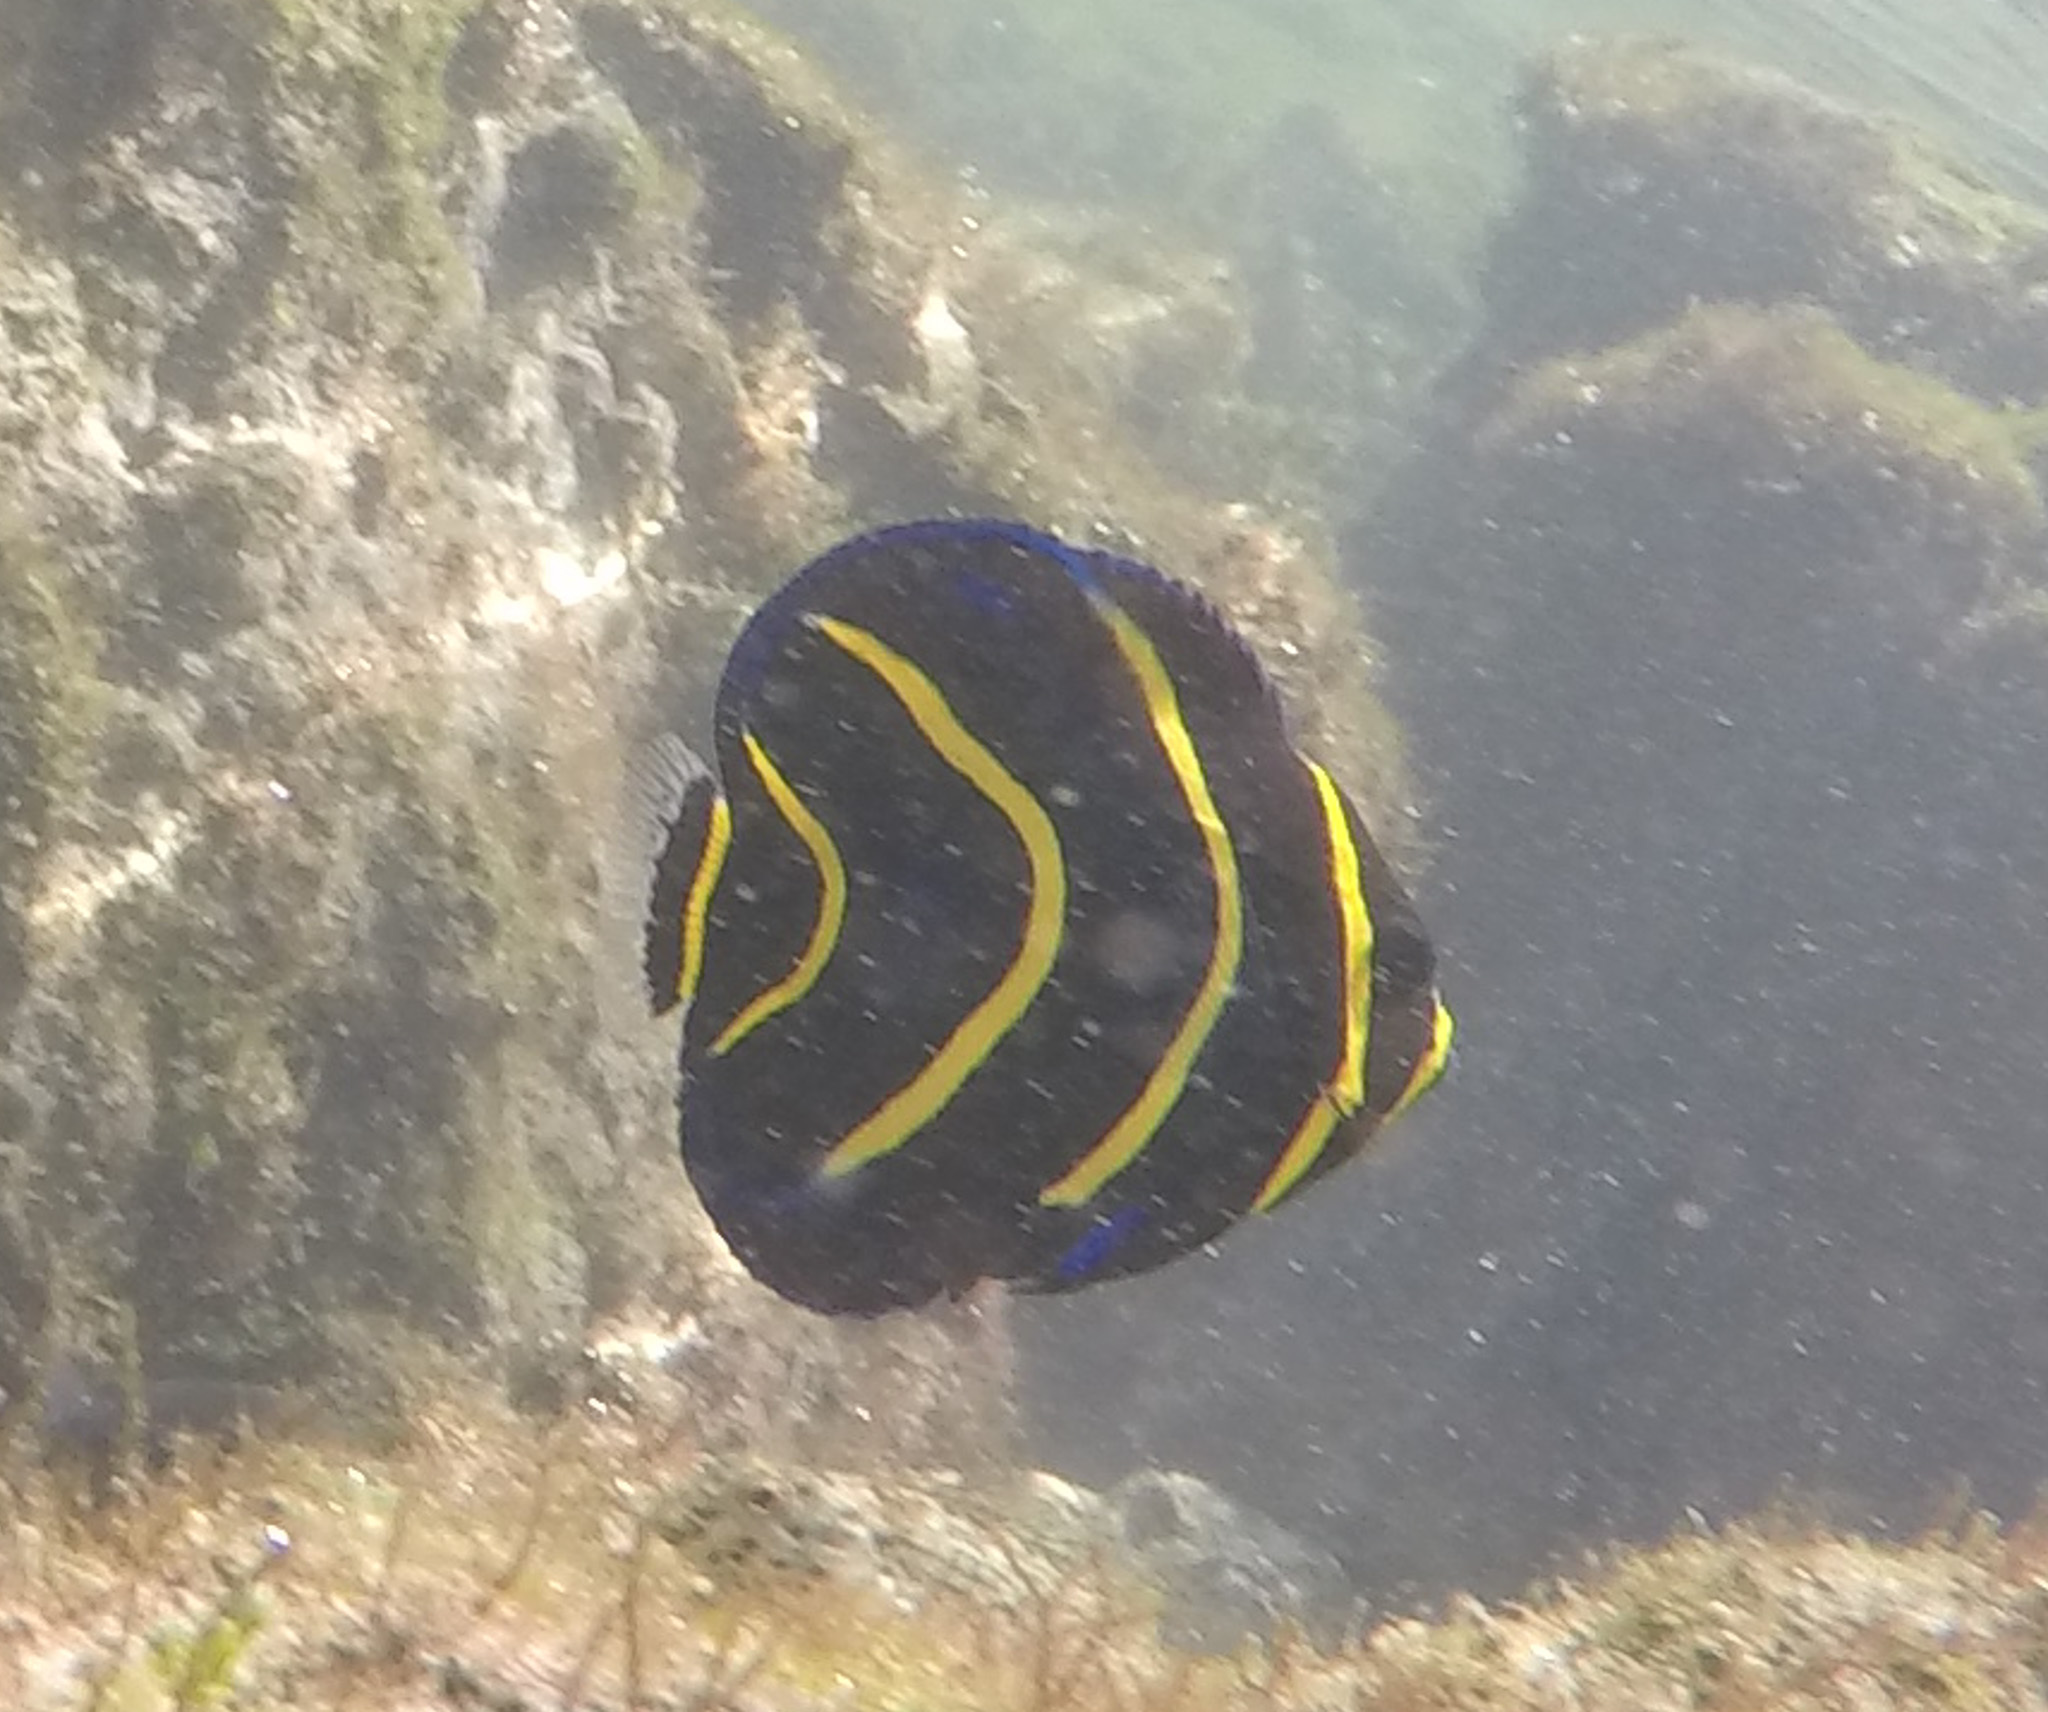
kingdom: Animalia
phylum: Chordata
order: Perciformes
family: Pomacanthidae
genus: Pomacanthus
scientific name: Pomacanthus zonipectus
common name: Cortez angelfish
